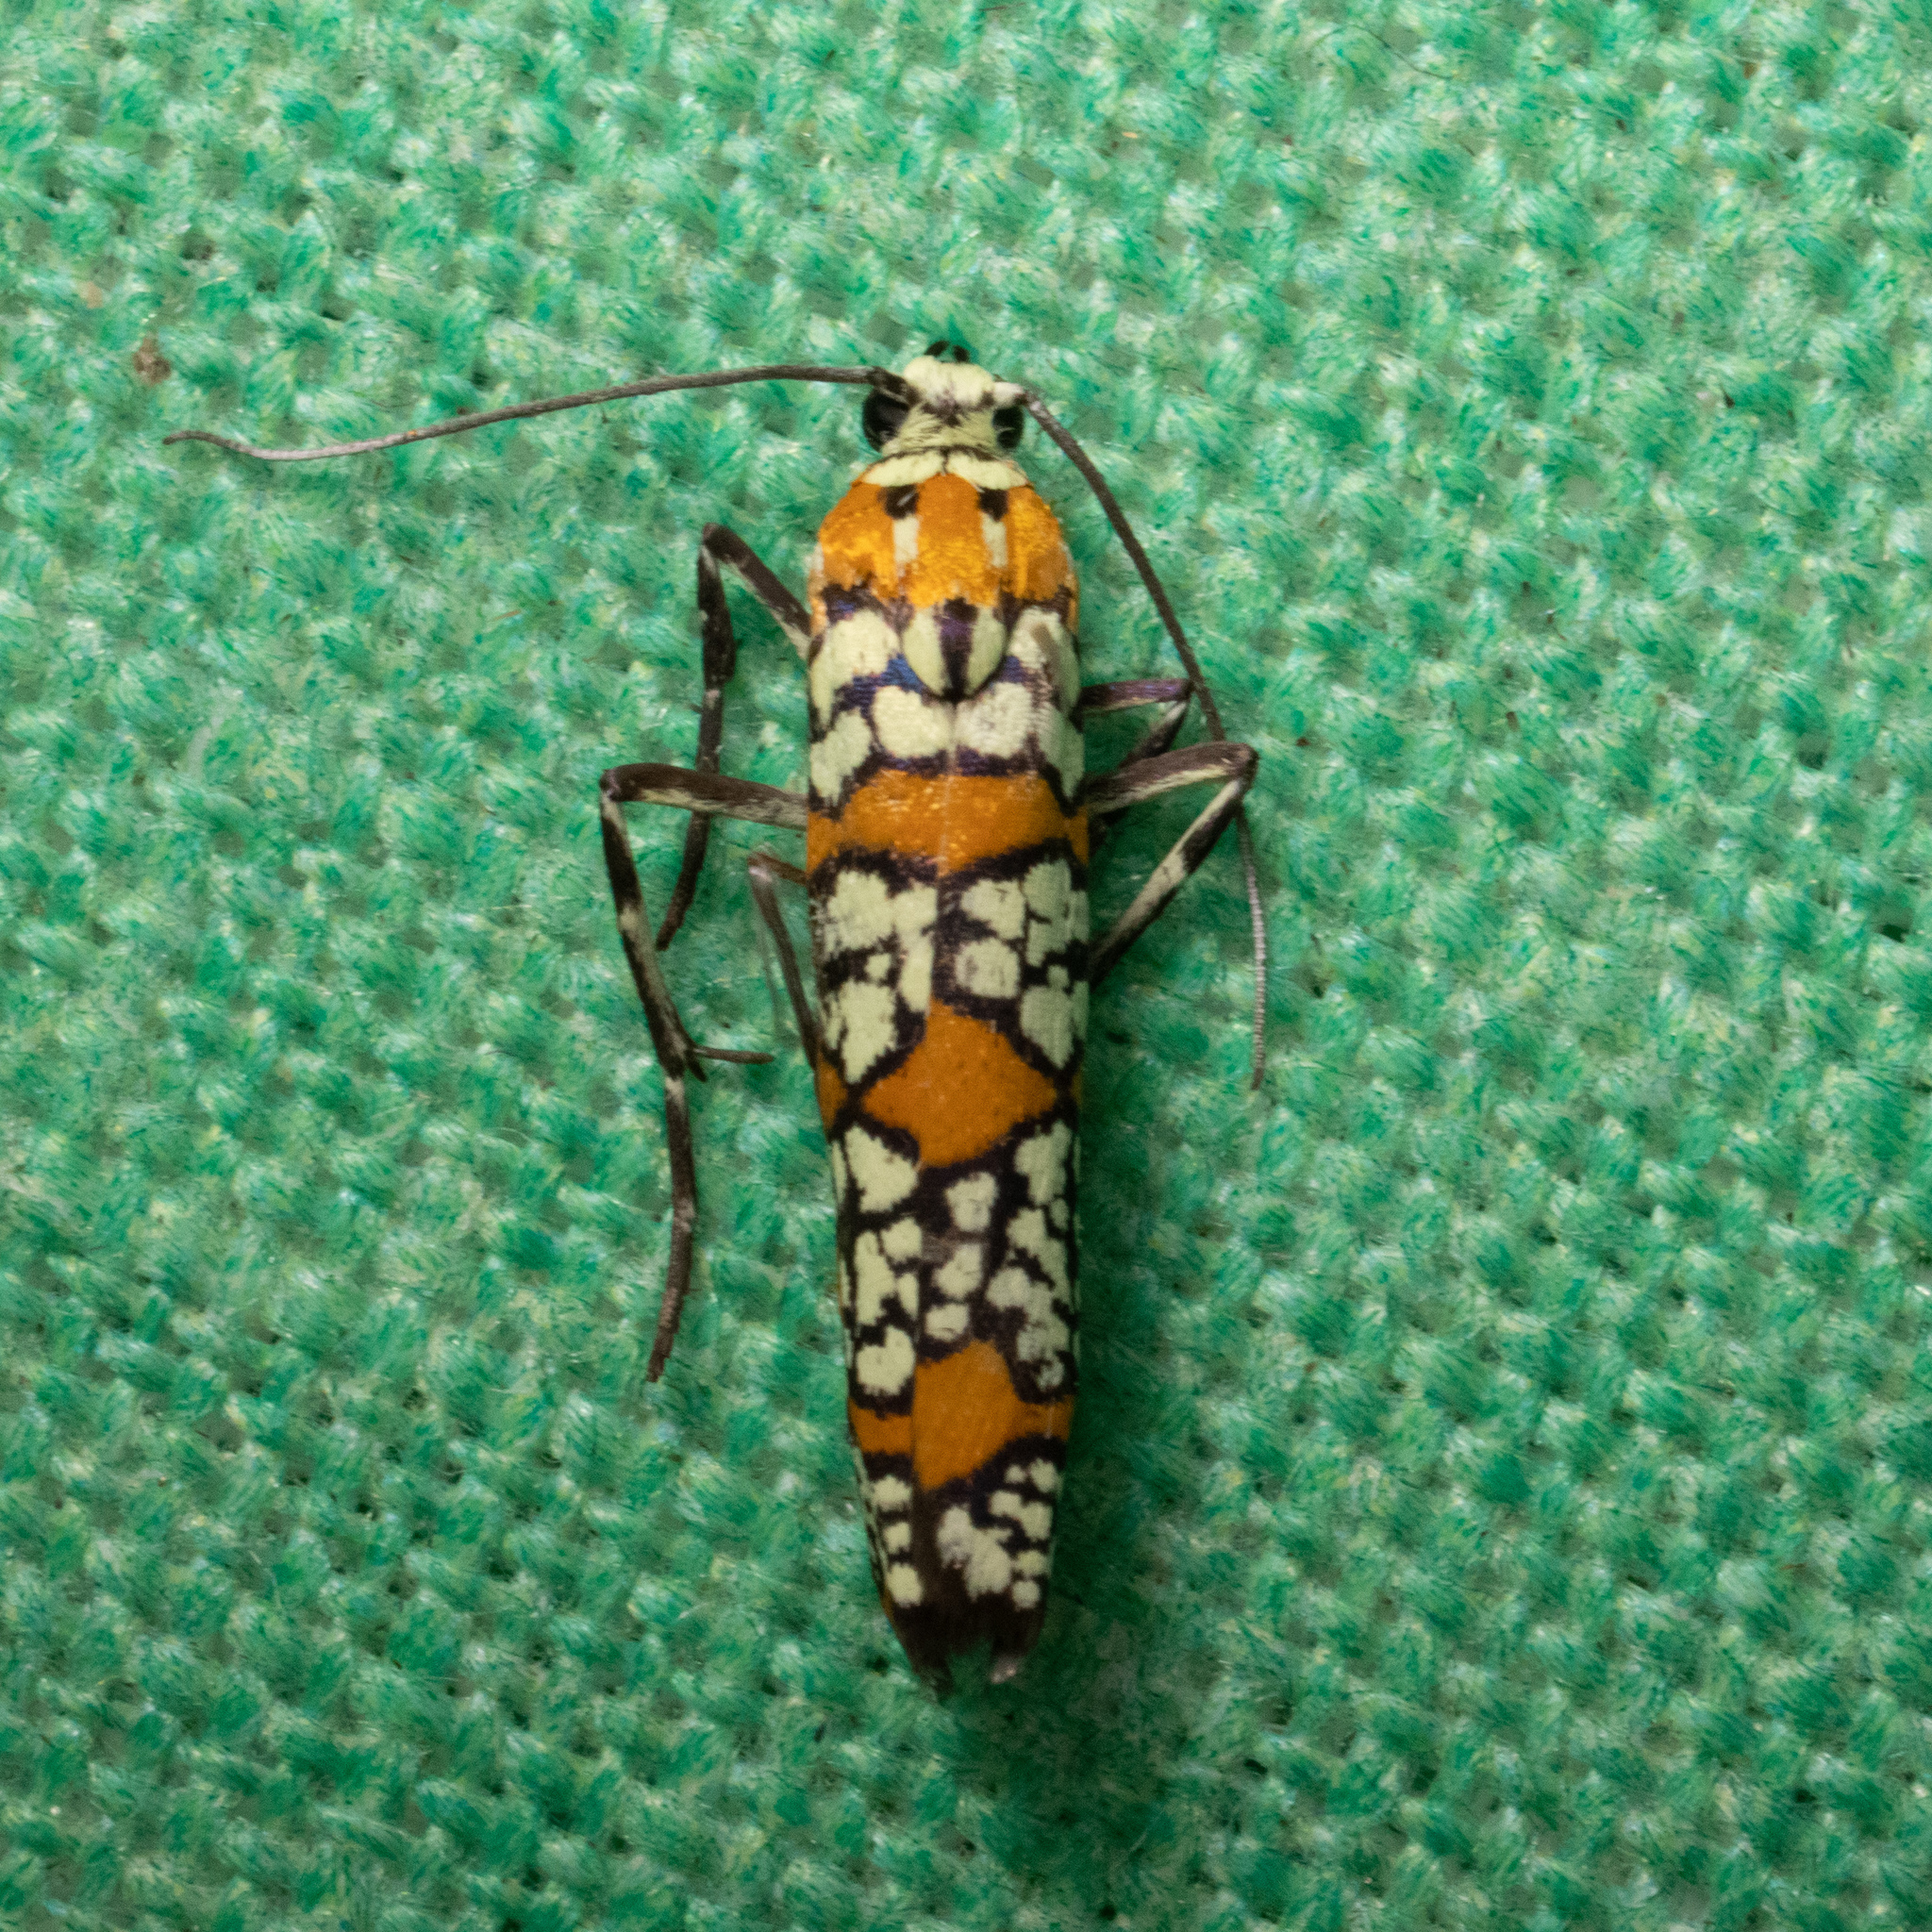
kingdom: Animalia
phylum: Arthropoda
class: Insecta
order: Lepidoptera
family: Attevidae
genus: Atteva
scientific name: Atteva punctella
